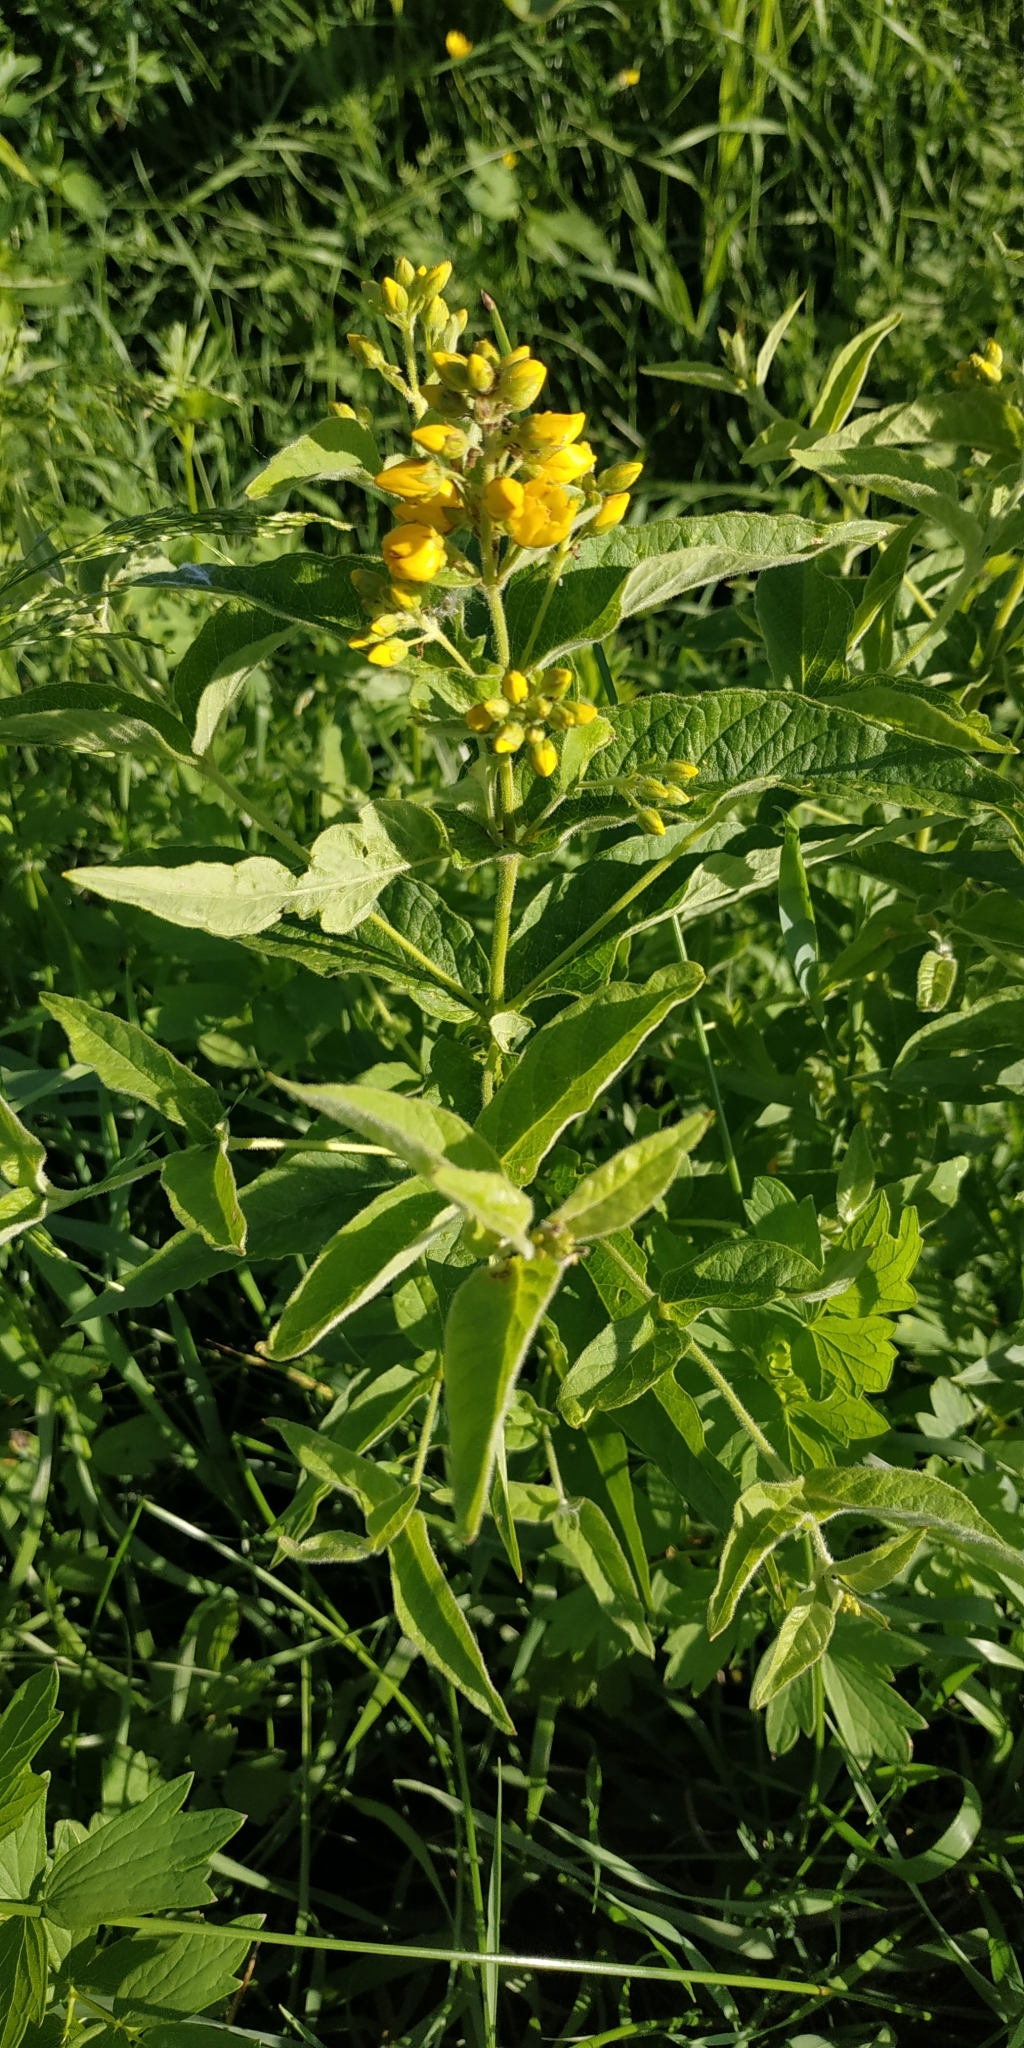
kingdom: Plantae
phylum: Tracheophyta
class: Magnoliopsida
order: Ericales
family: Primulaceae
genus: Lysimachia
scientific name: Lysimachia vulgaris
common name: Yellow loosestrife
